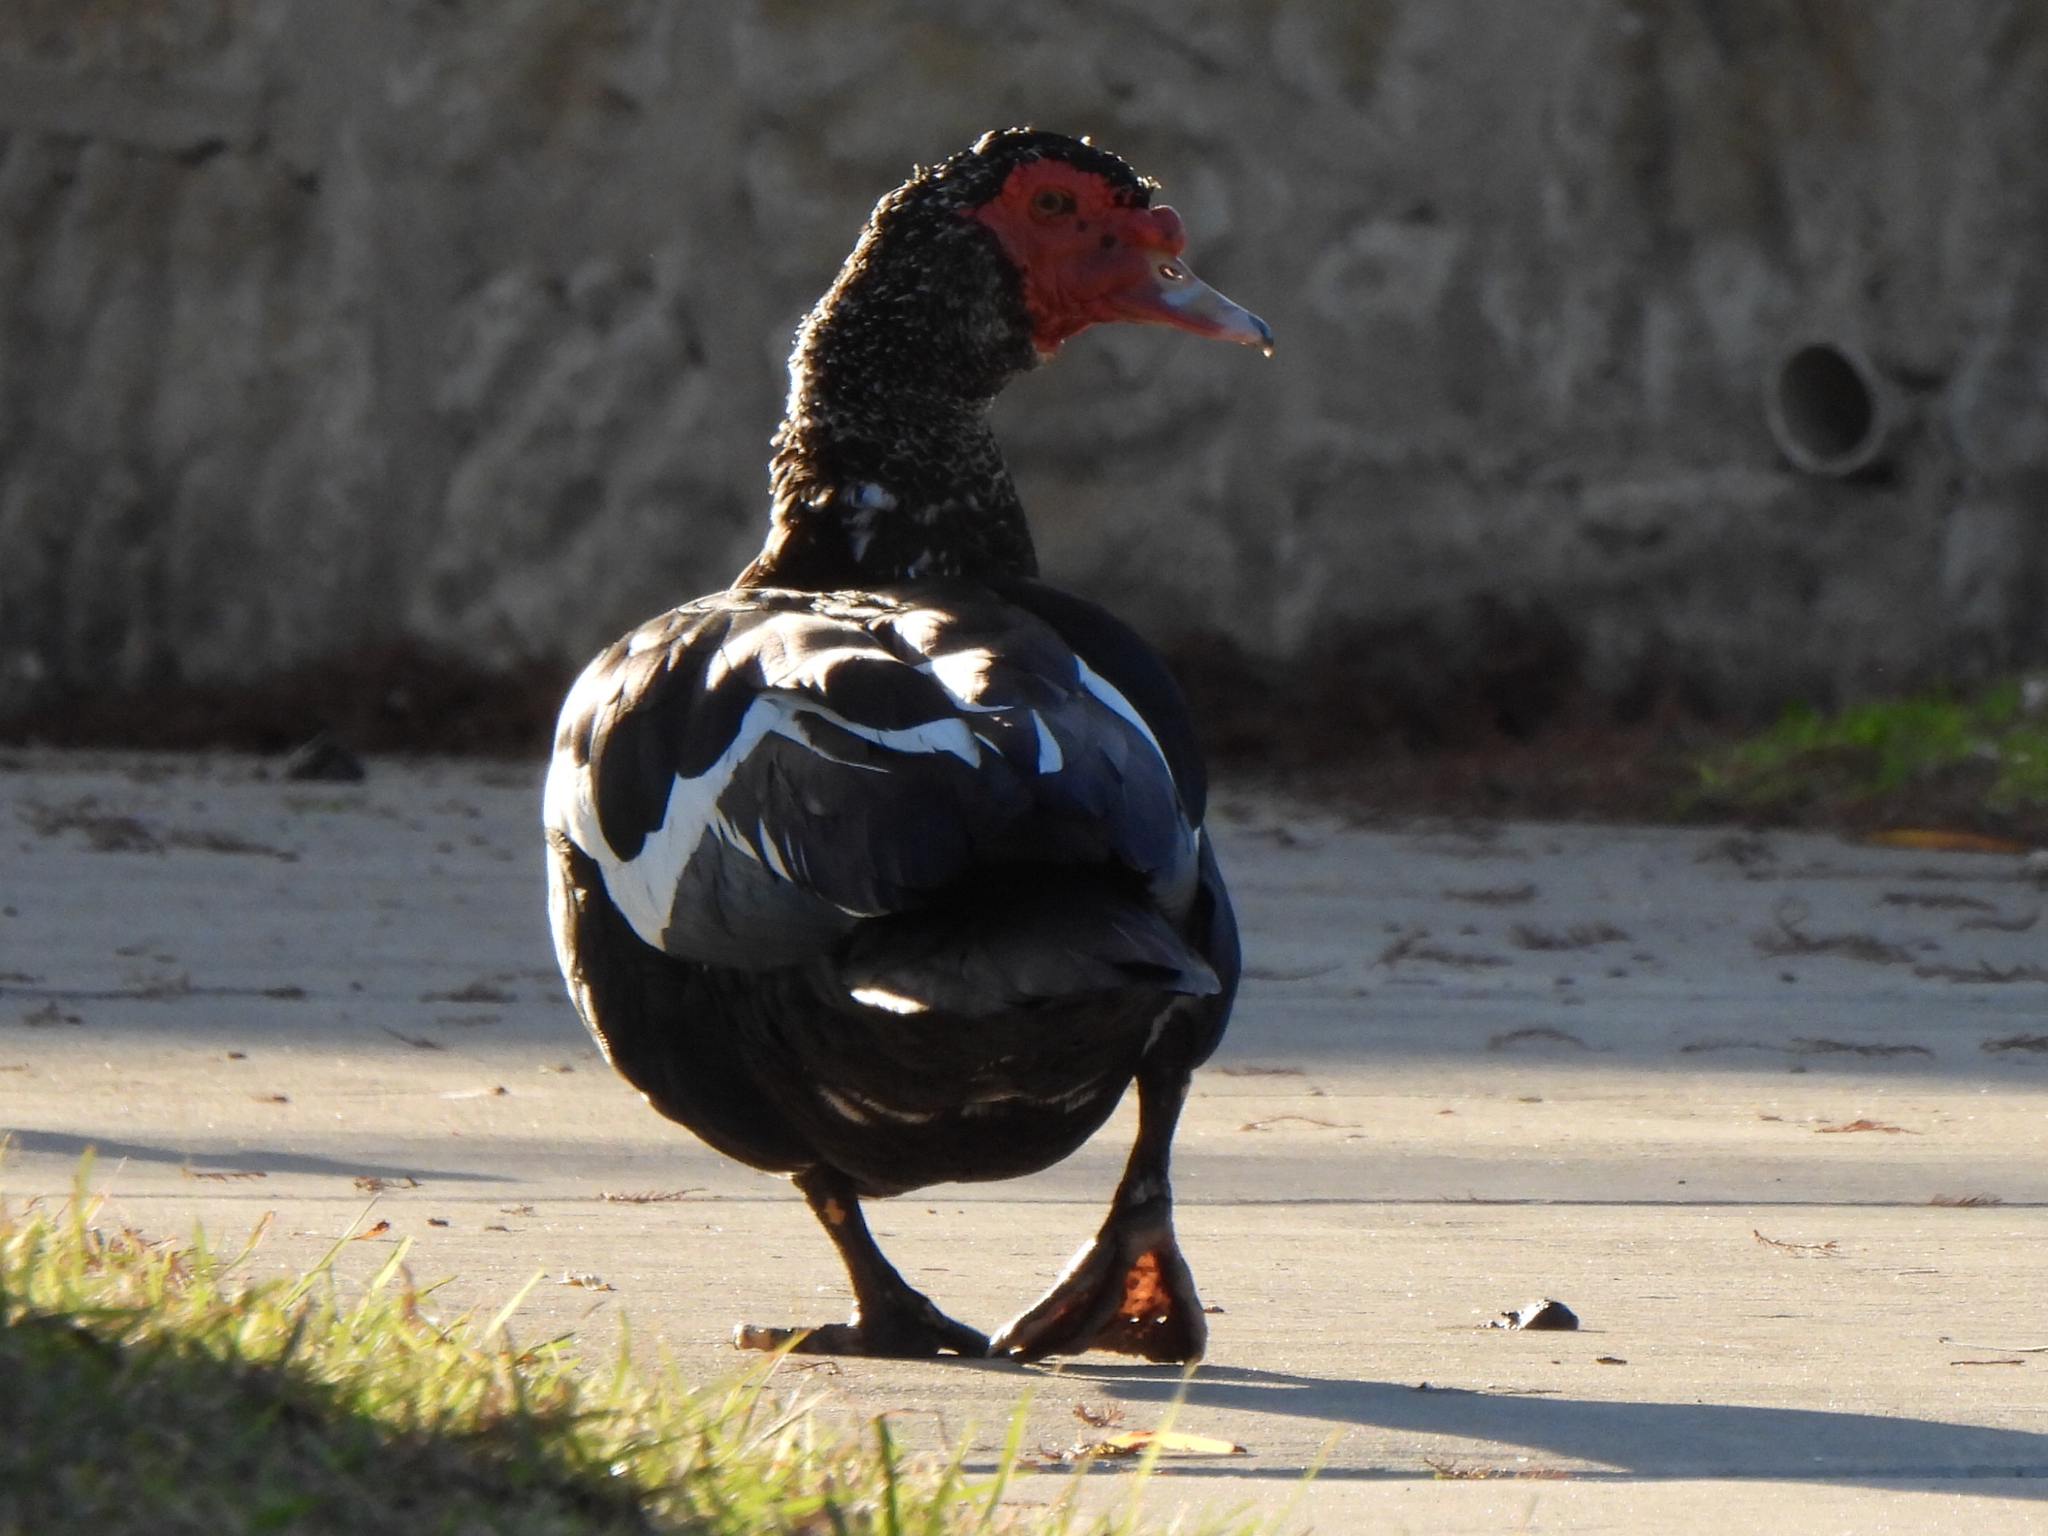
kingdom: Animalia
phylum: Chordata
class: Aves
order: Anseriformes
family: Anatidae
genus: Cairina
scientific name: Cairina moschata
